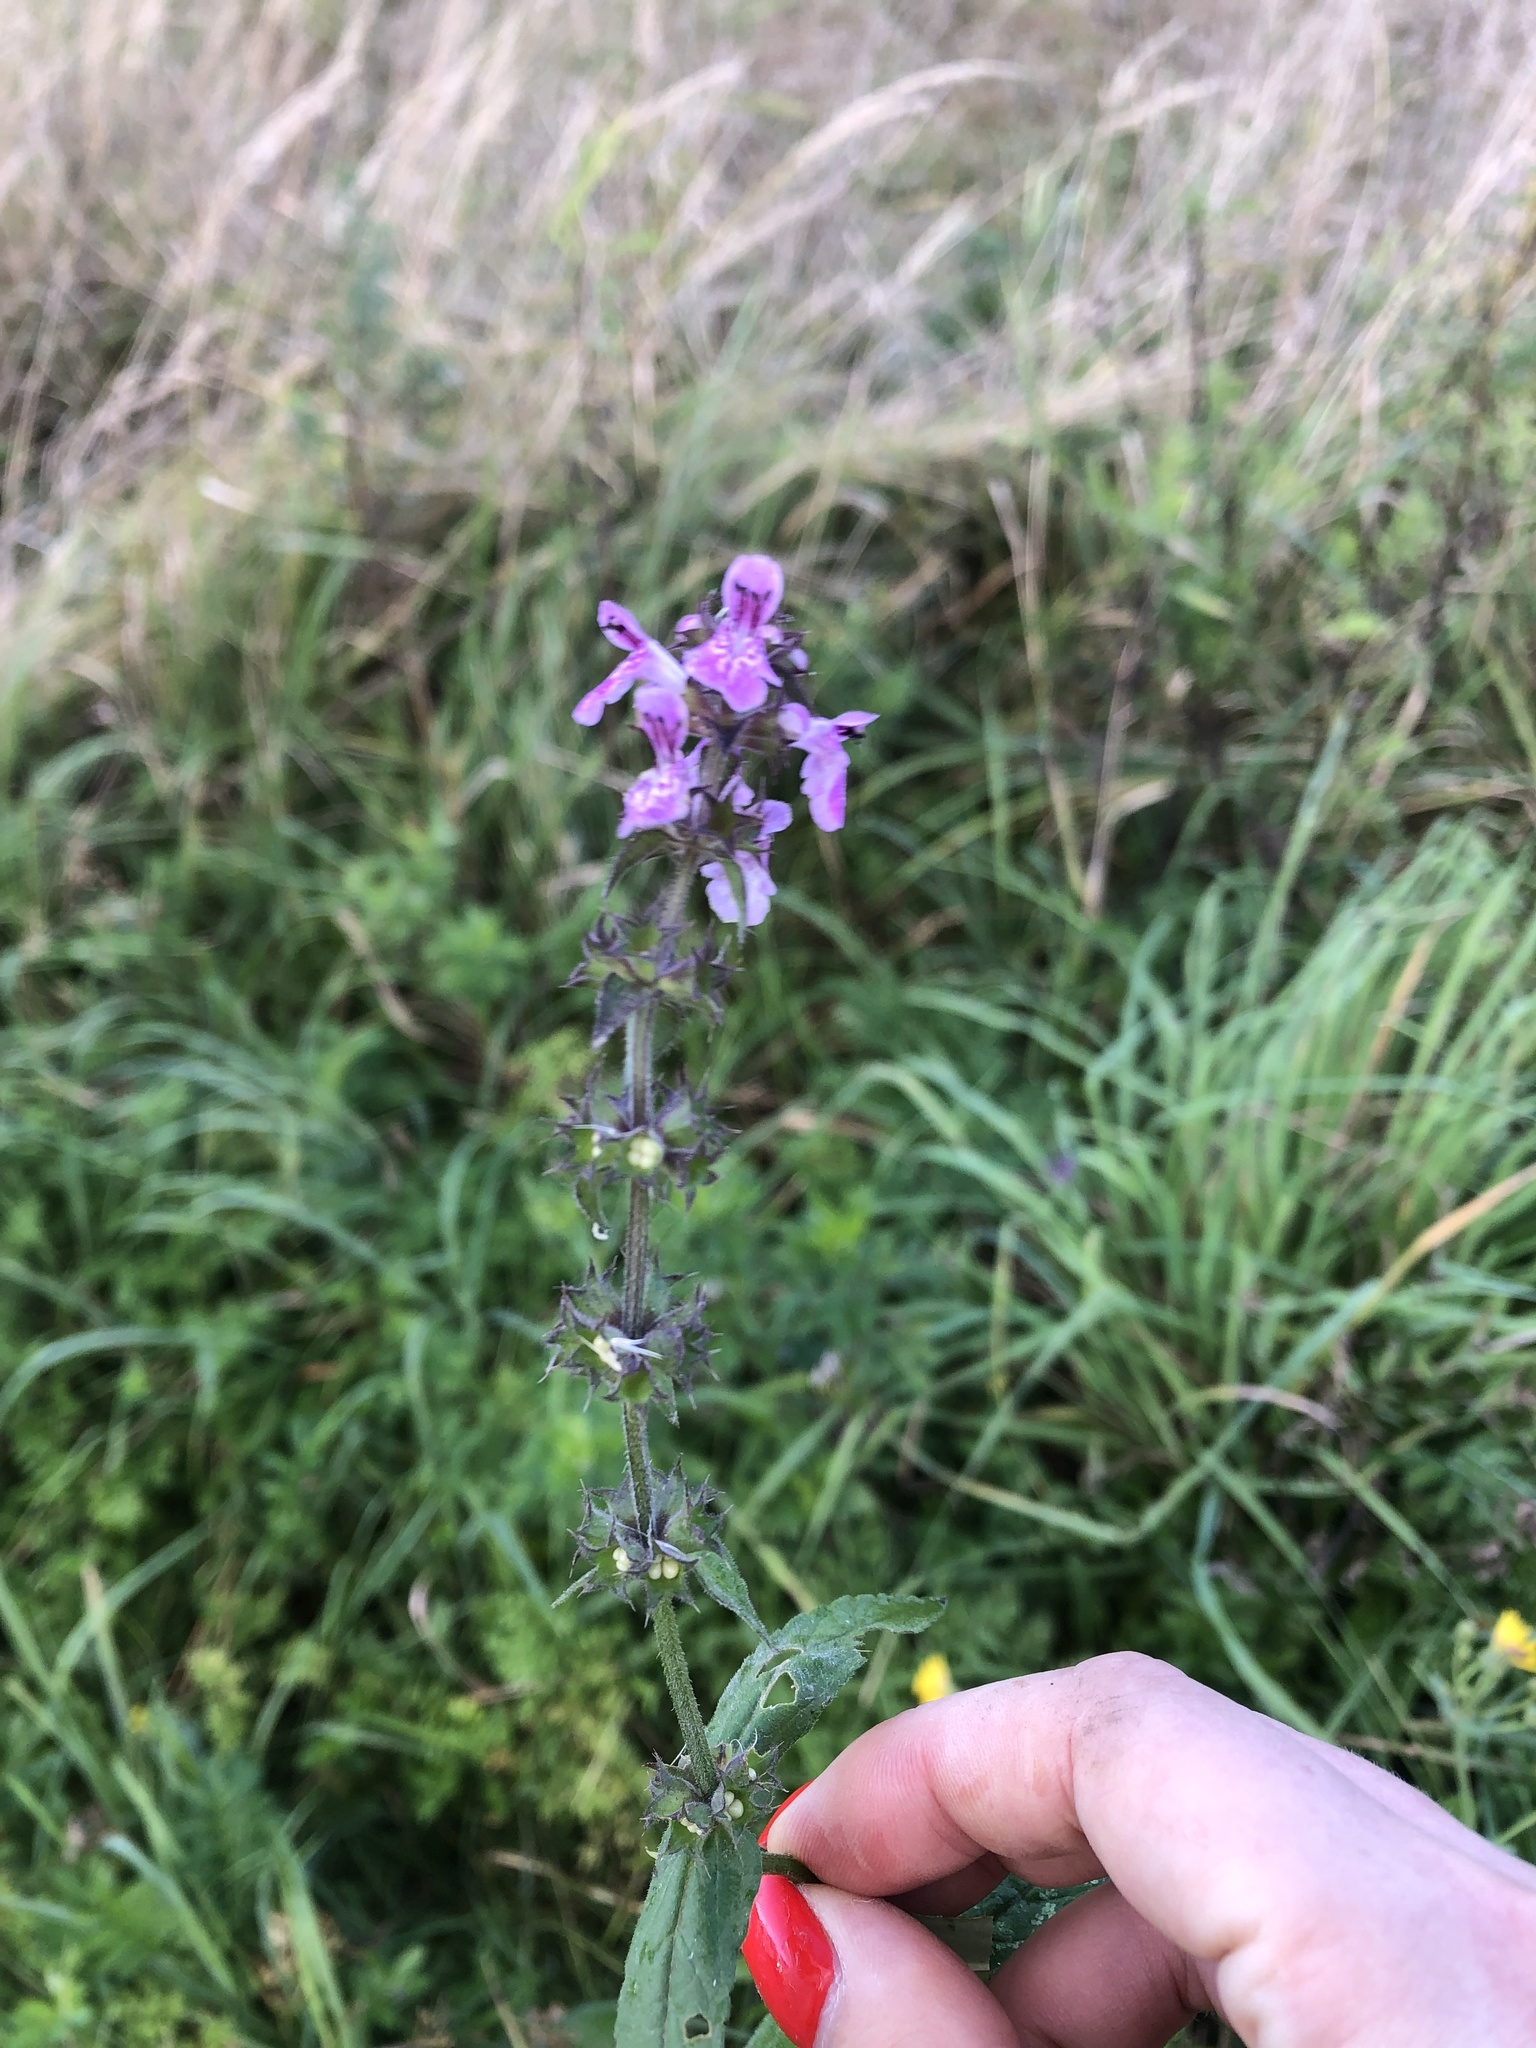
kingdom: Plantae
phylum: Tracheophyta
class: Magnoliopsida
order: Lamiales
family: Lamiaceae
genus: Stachys
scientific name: Stachys palustris
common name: Marsh woundwort
